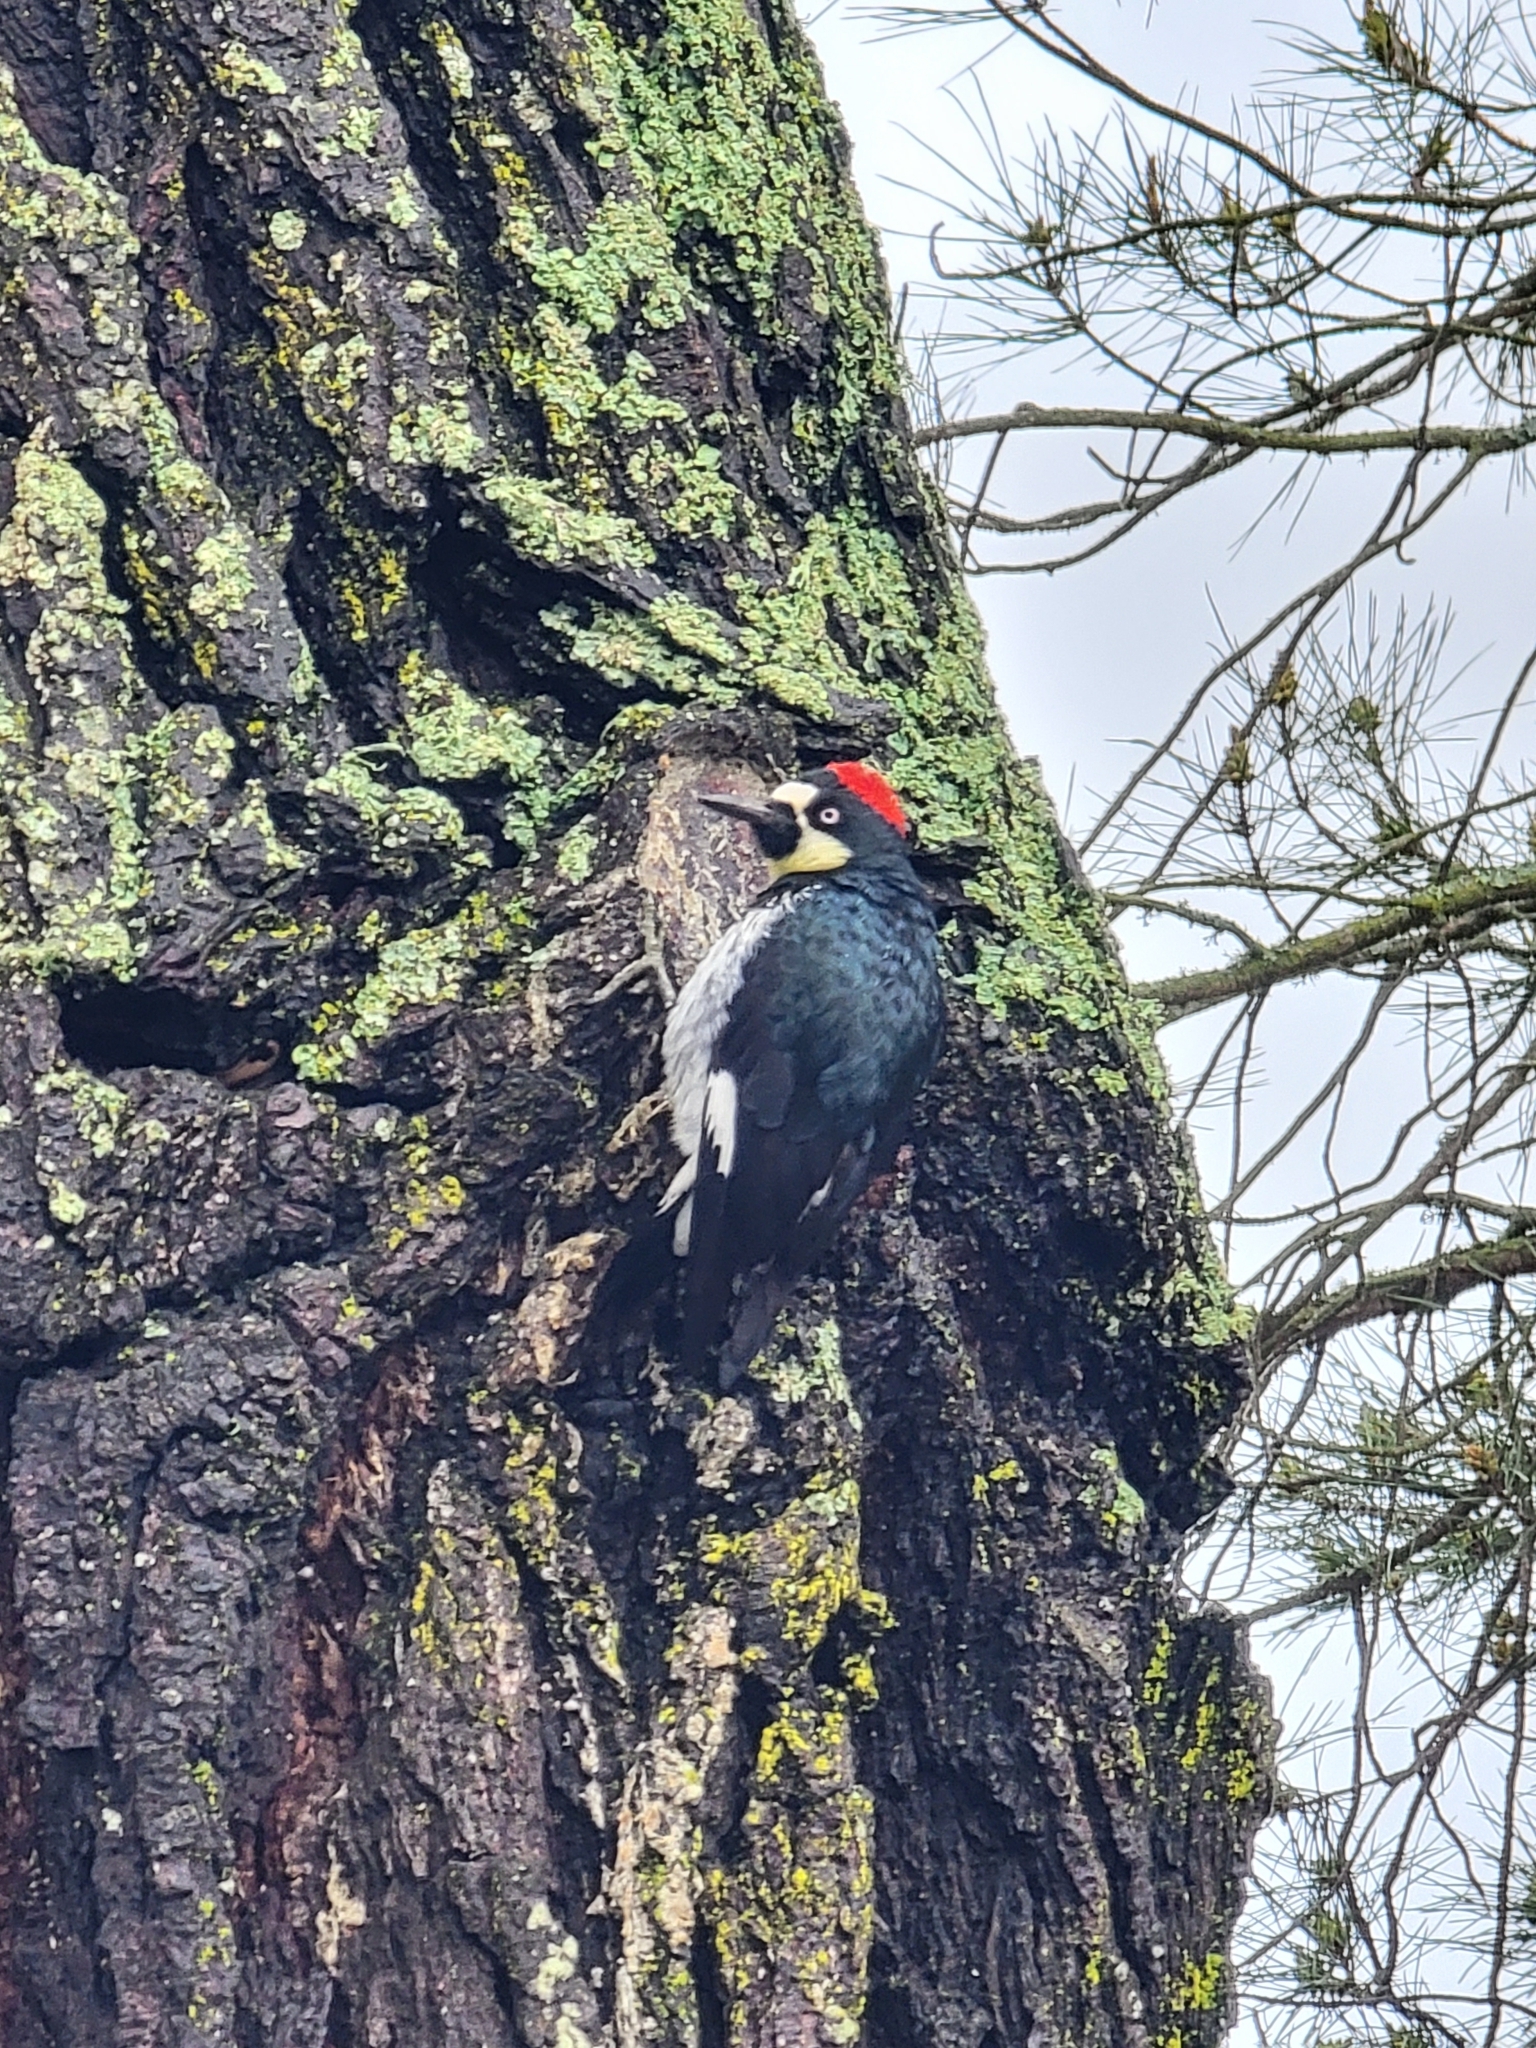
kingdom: Animalia
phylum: Chordata
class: Aves
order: Piciformes
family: Picidae
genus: Melanerpes
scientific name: Melanerpes formicivorus
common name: Acorn woodpecker
